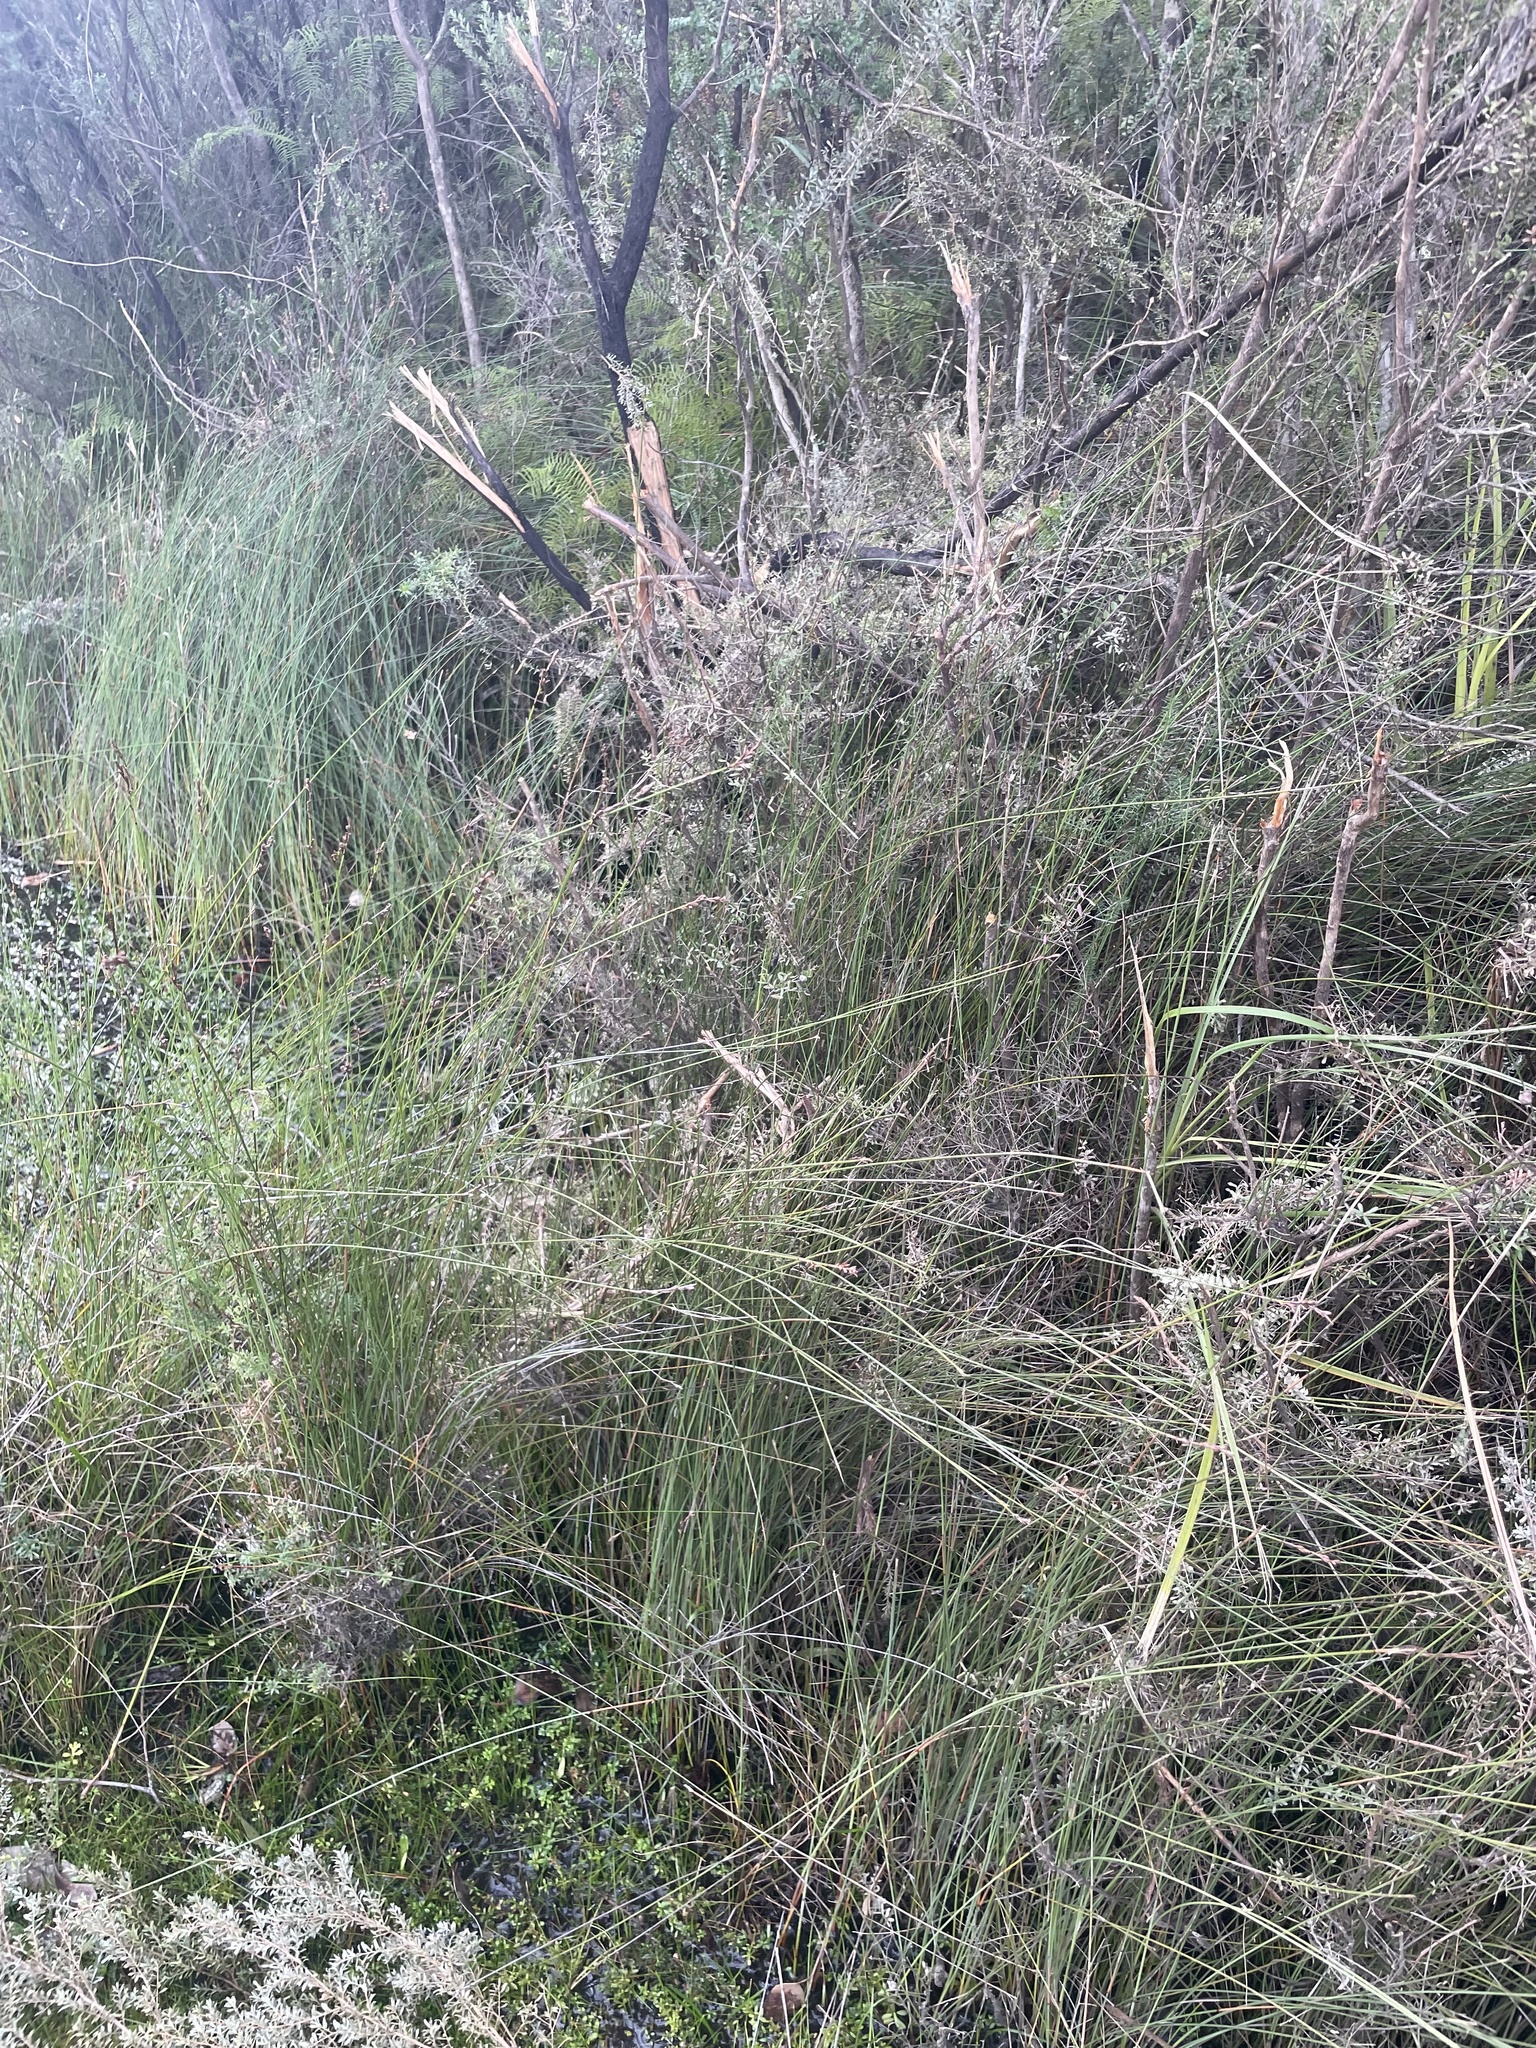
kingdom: Plantae
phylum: Tracheophyta
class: Liliopsida
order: Poales
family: Cyperaceae
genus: Machaerina
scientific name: Machaerina juncea
